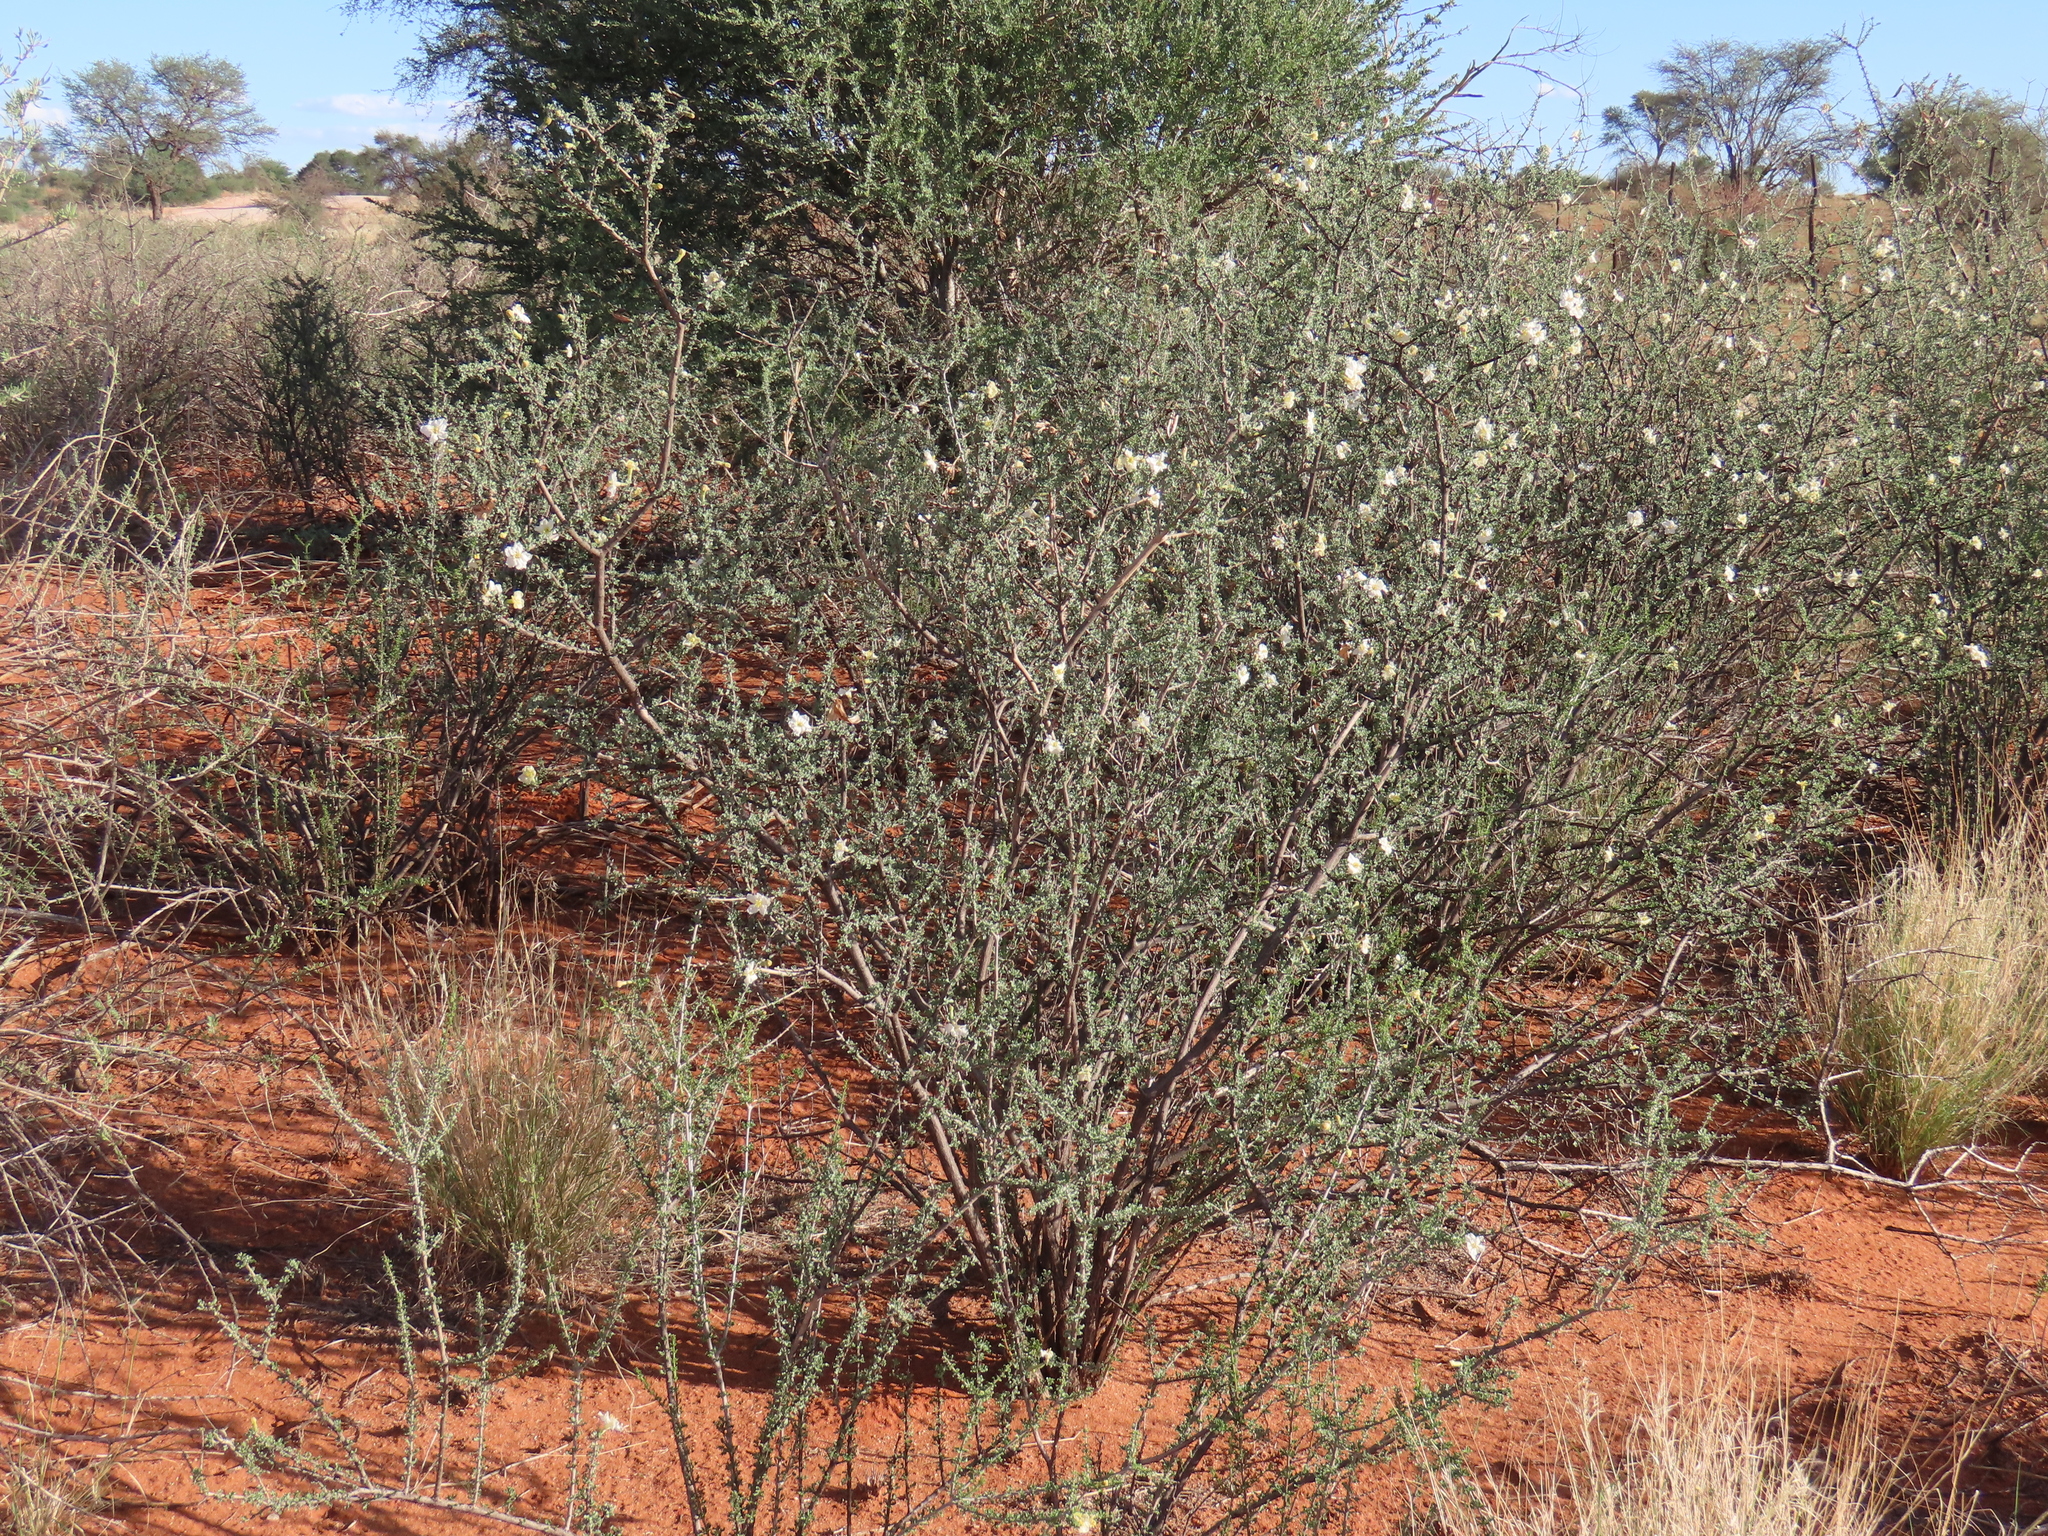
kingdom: Plantae
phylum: Tracheophyta
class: Magnoliopsida
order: Lamiales
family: Bignoniaceae
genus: Rhigozum
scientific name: Rhigozum trichotomum
